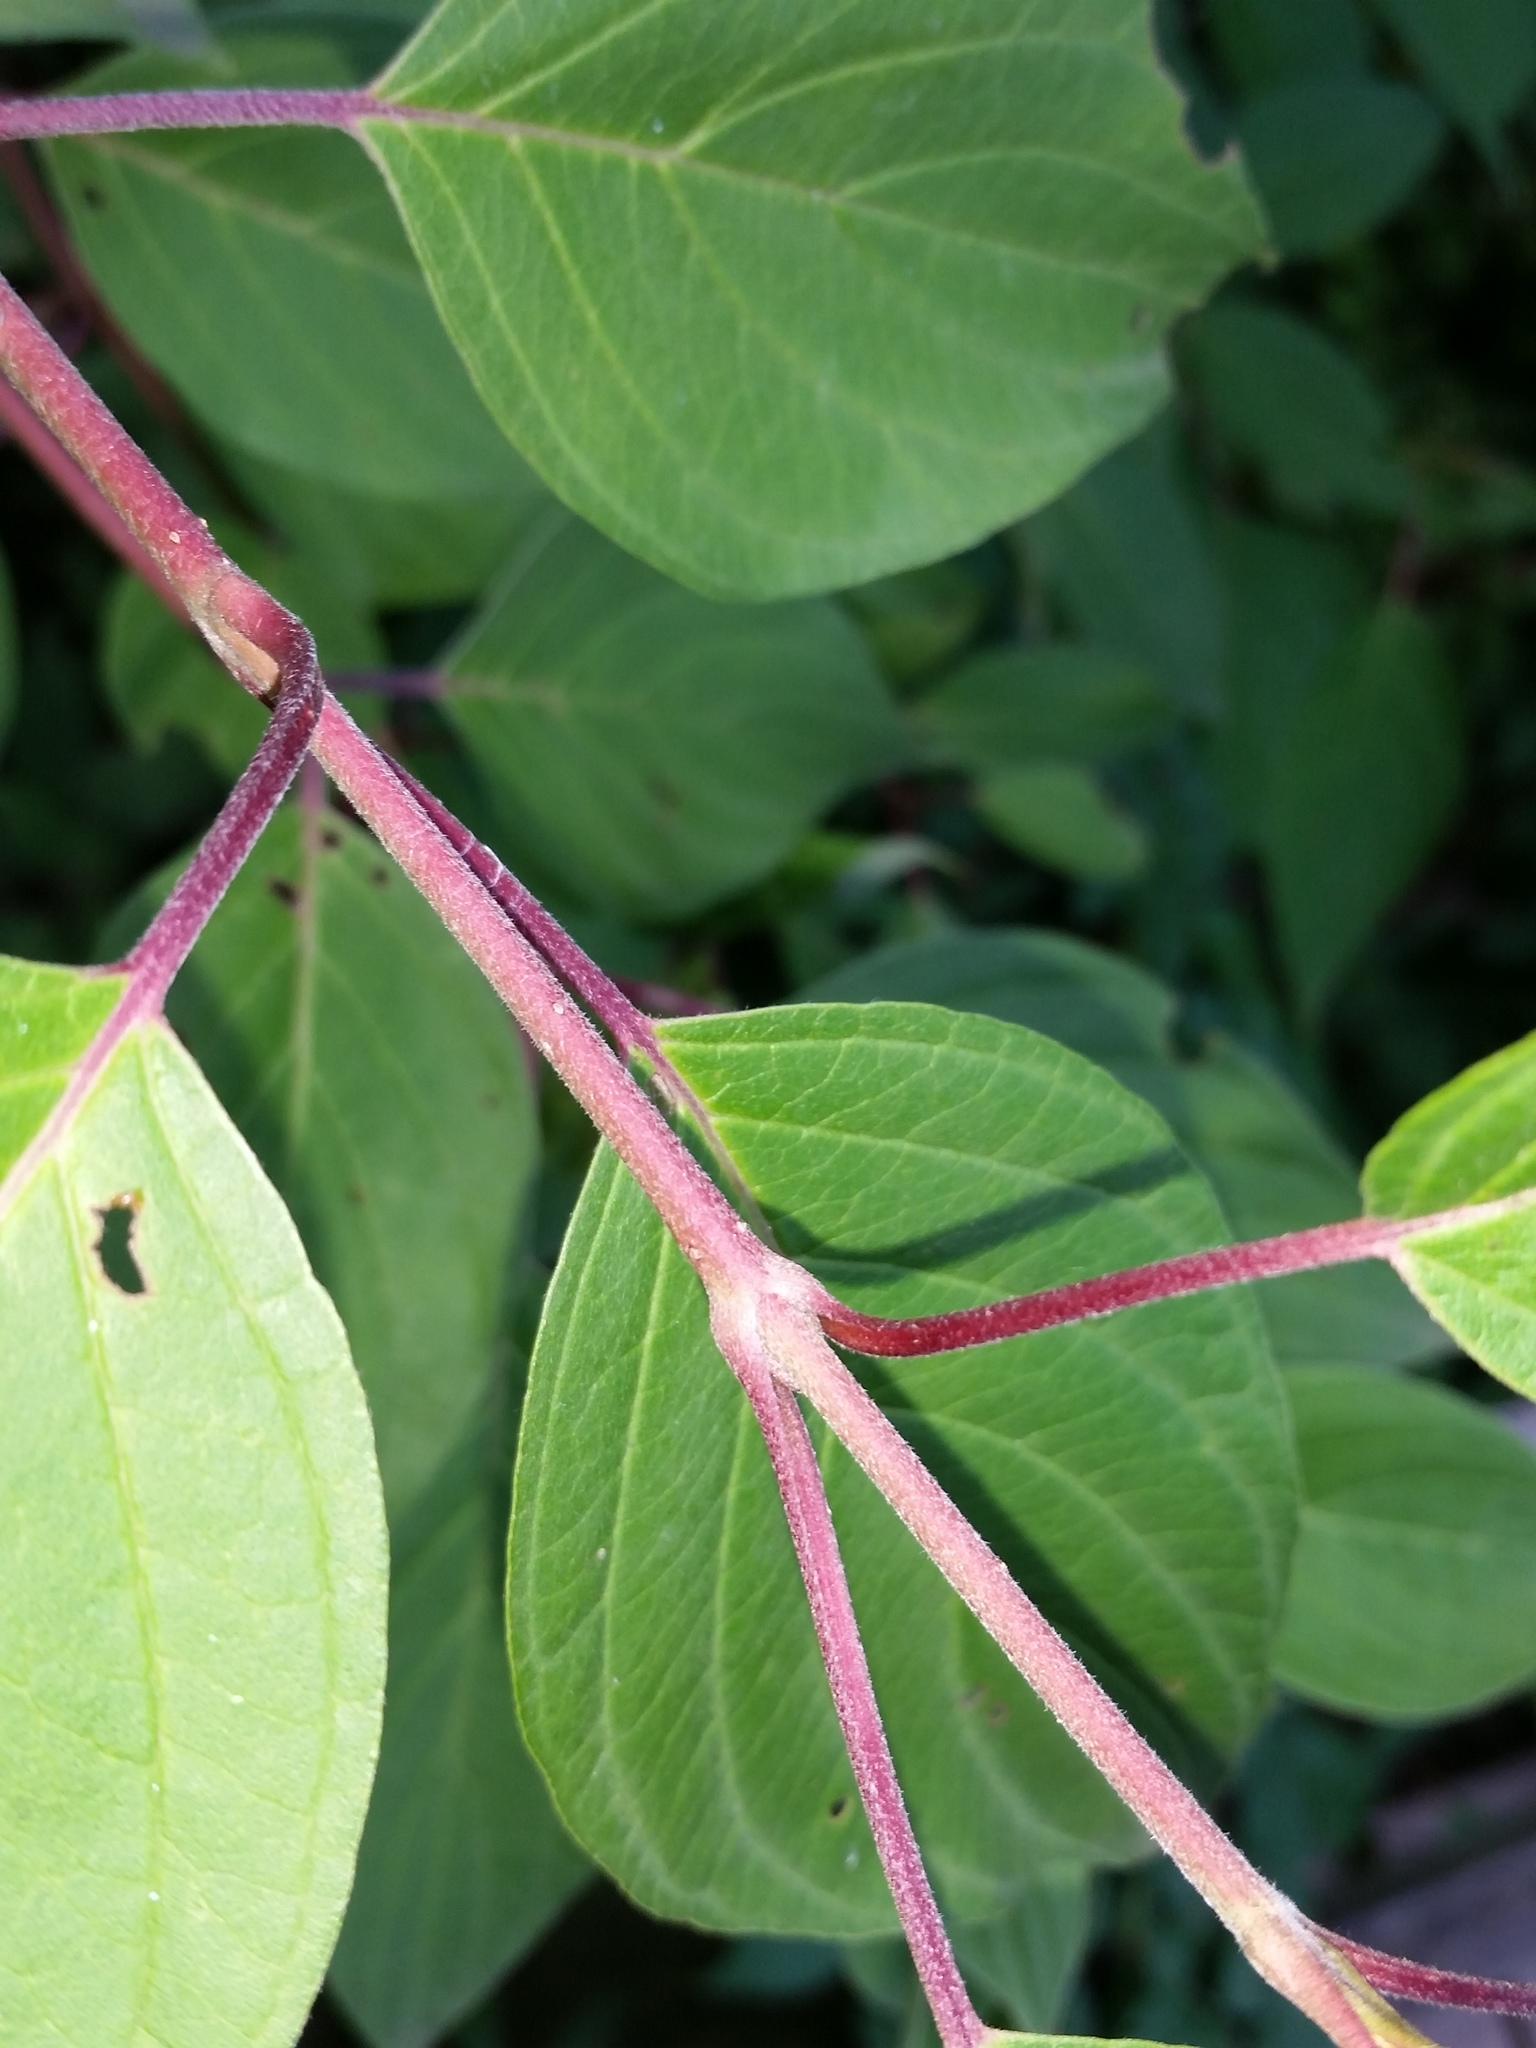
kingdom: Plantae
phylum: Tracheophyta
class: Magnoliopsida
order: Cornales
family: Cornaceae
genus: Cornus
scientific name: Cornus sericea
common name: Red-osier dogwood
